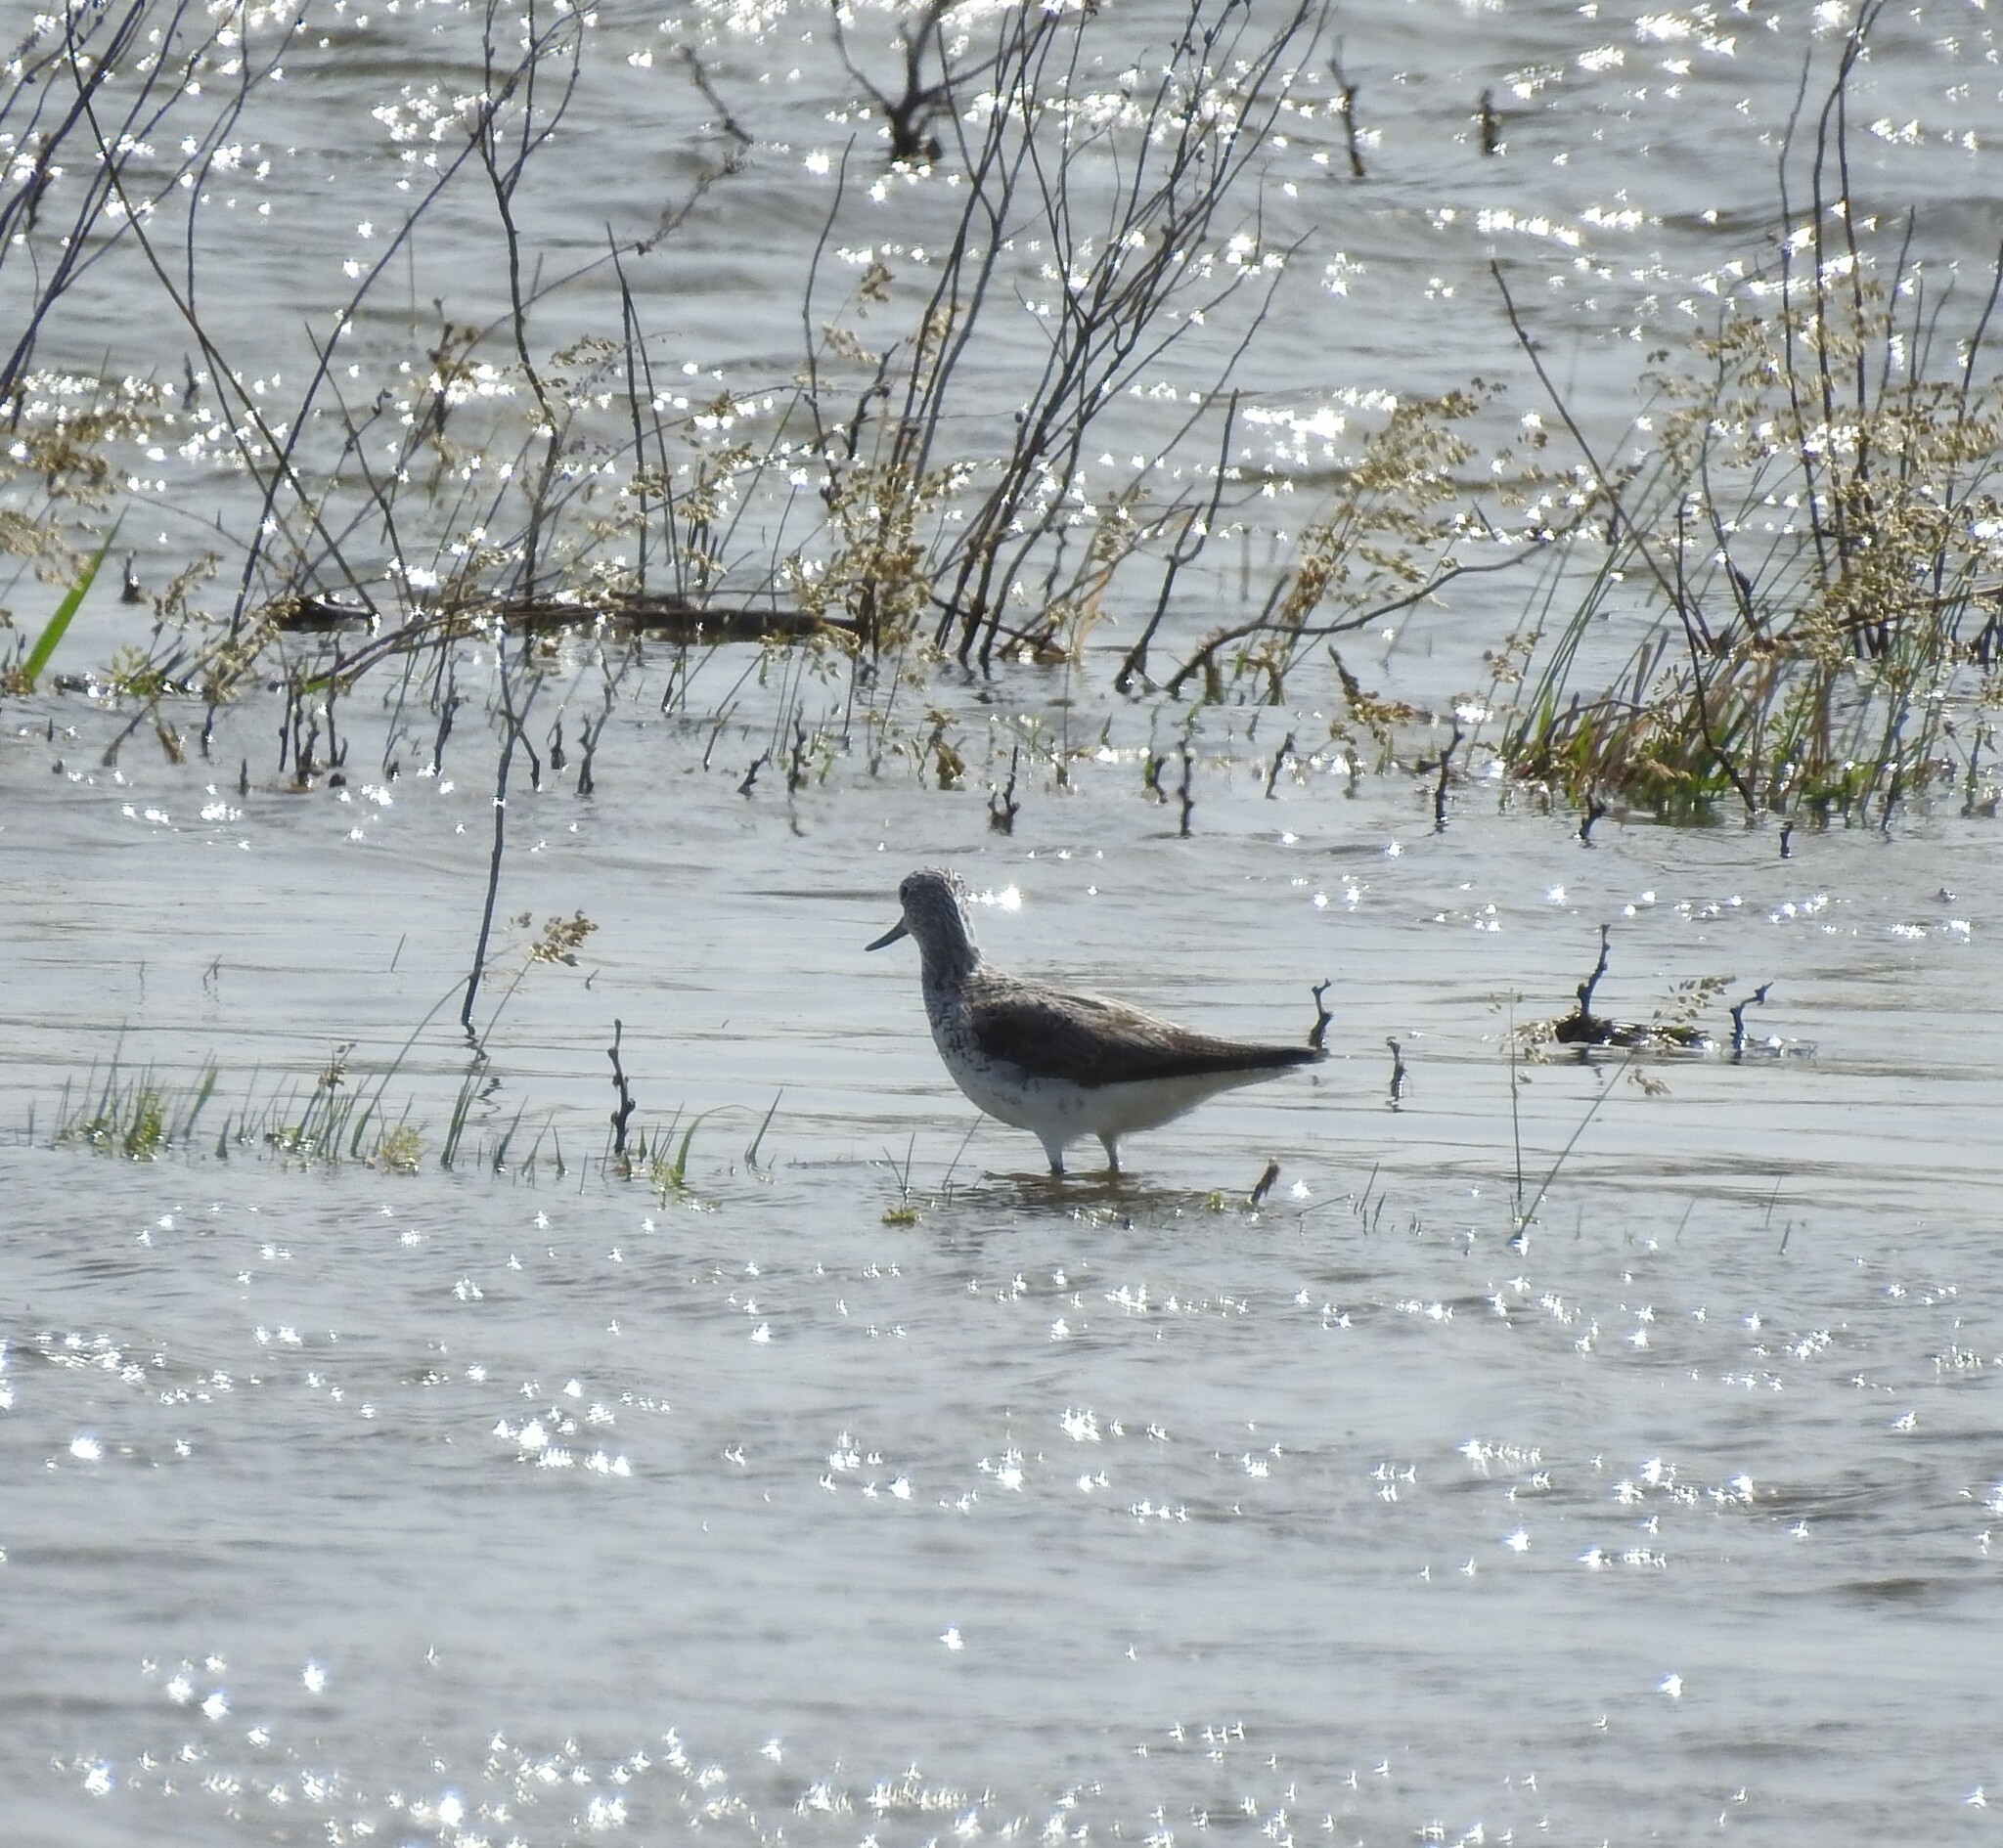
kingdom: Animalia
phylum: Chordata
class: Aves
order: Charadriiformes
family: Scolopacidae
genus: Tringa
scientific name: Tringa nebularia
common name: Common greenshank
